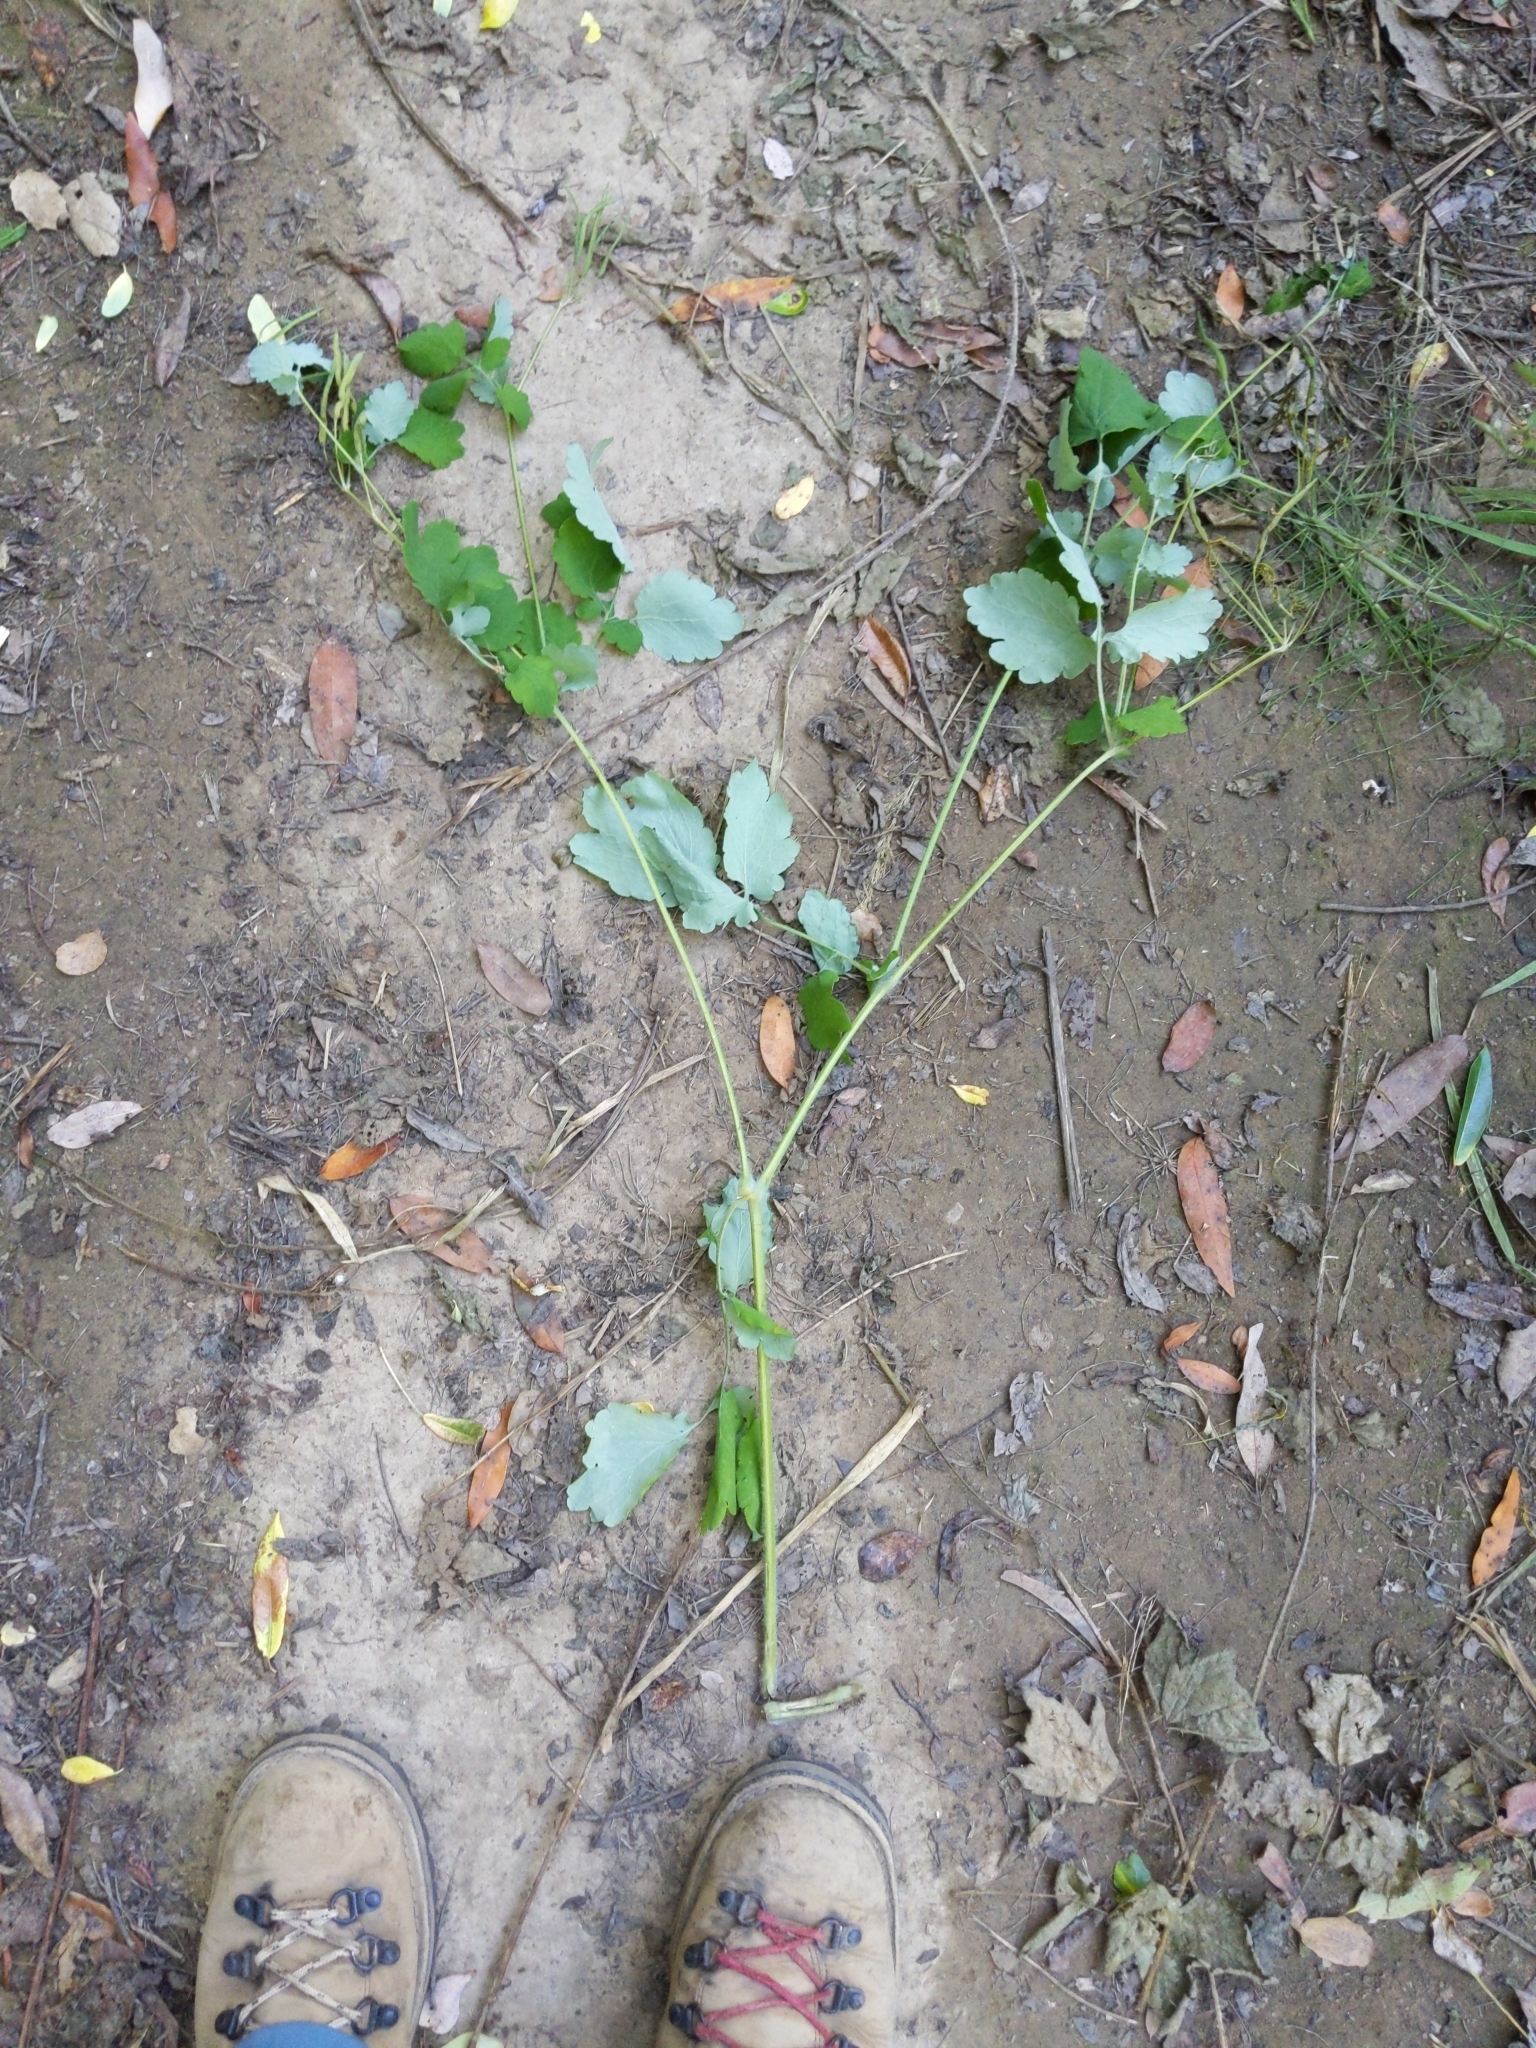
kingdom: Plantae
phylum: Tracheophyta
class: Magnoliopsida
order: Ranunculales
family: Papaveraceae
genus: Chelidonium
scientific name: Chelidonium majus
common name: Greater celandine
